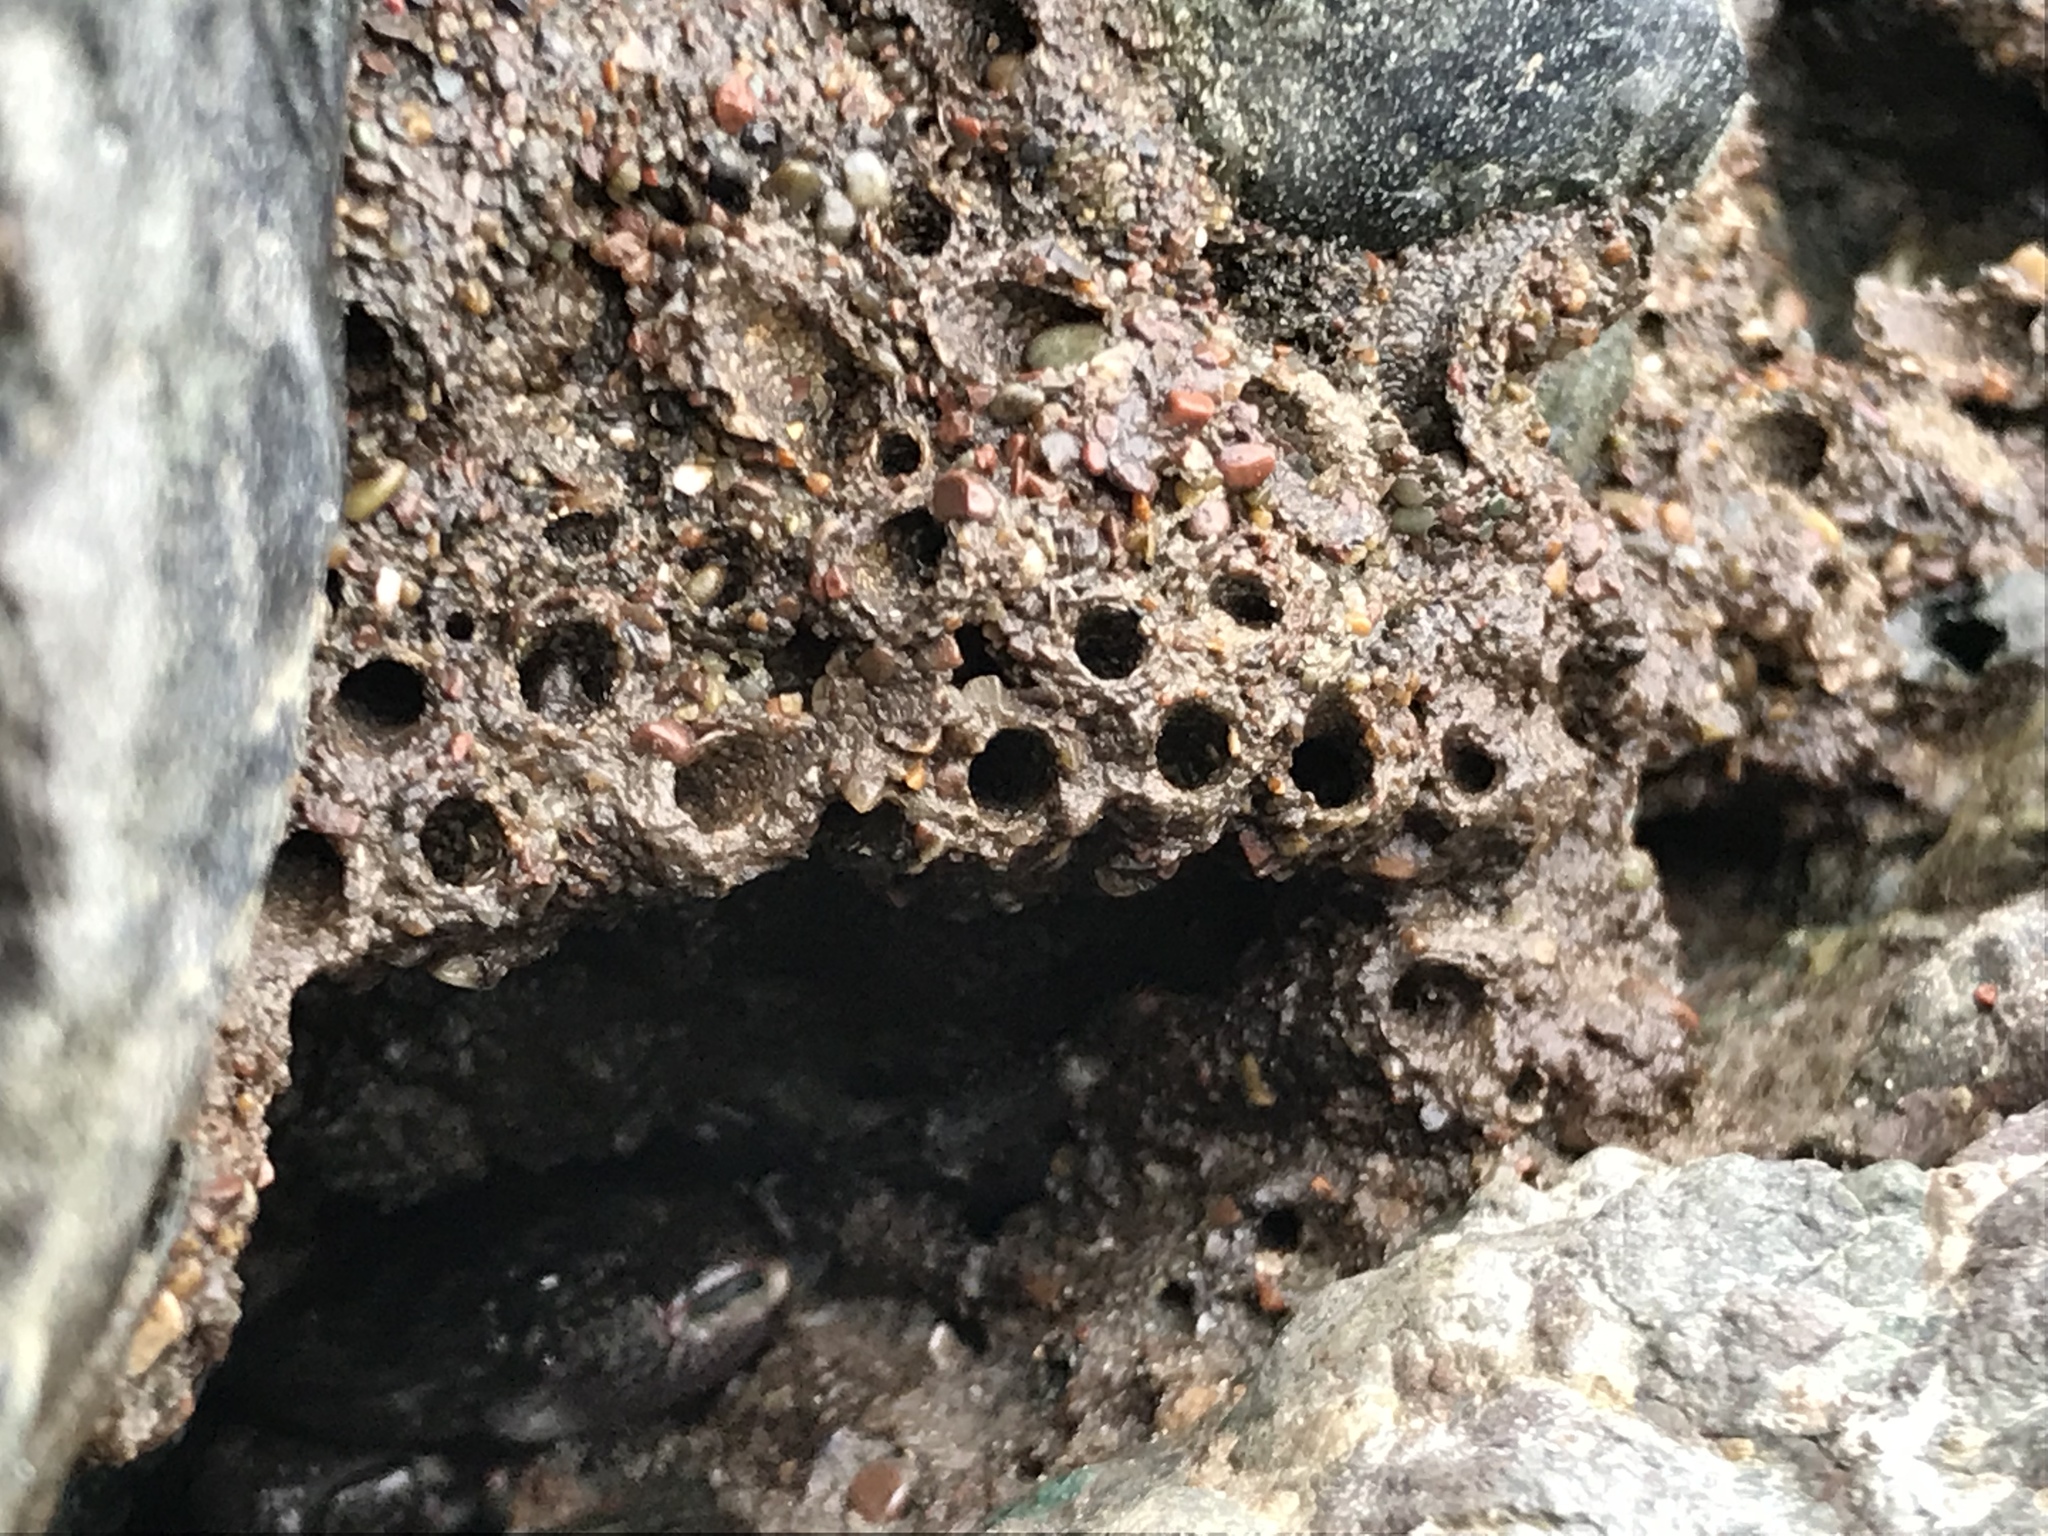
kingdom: Animalia
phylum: Annelida
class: Polychaeta
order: Sabellida
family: Sabellariidae
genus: Phragmatopoma
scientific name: Phragmatopoma californica
